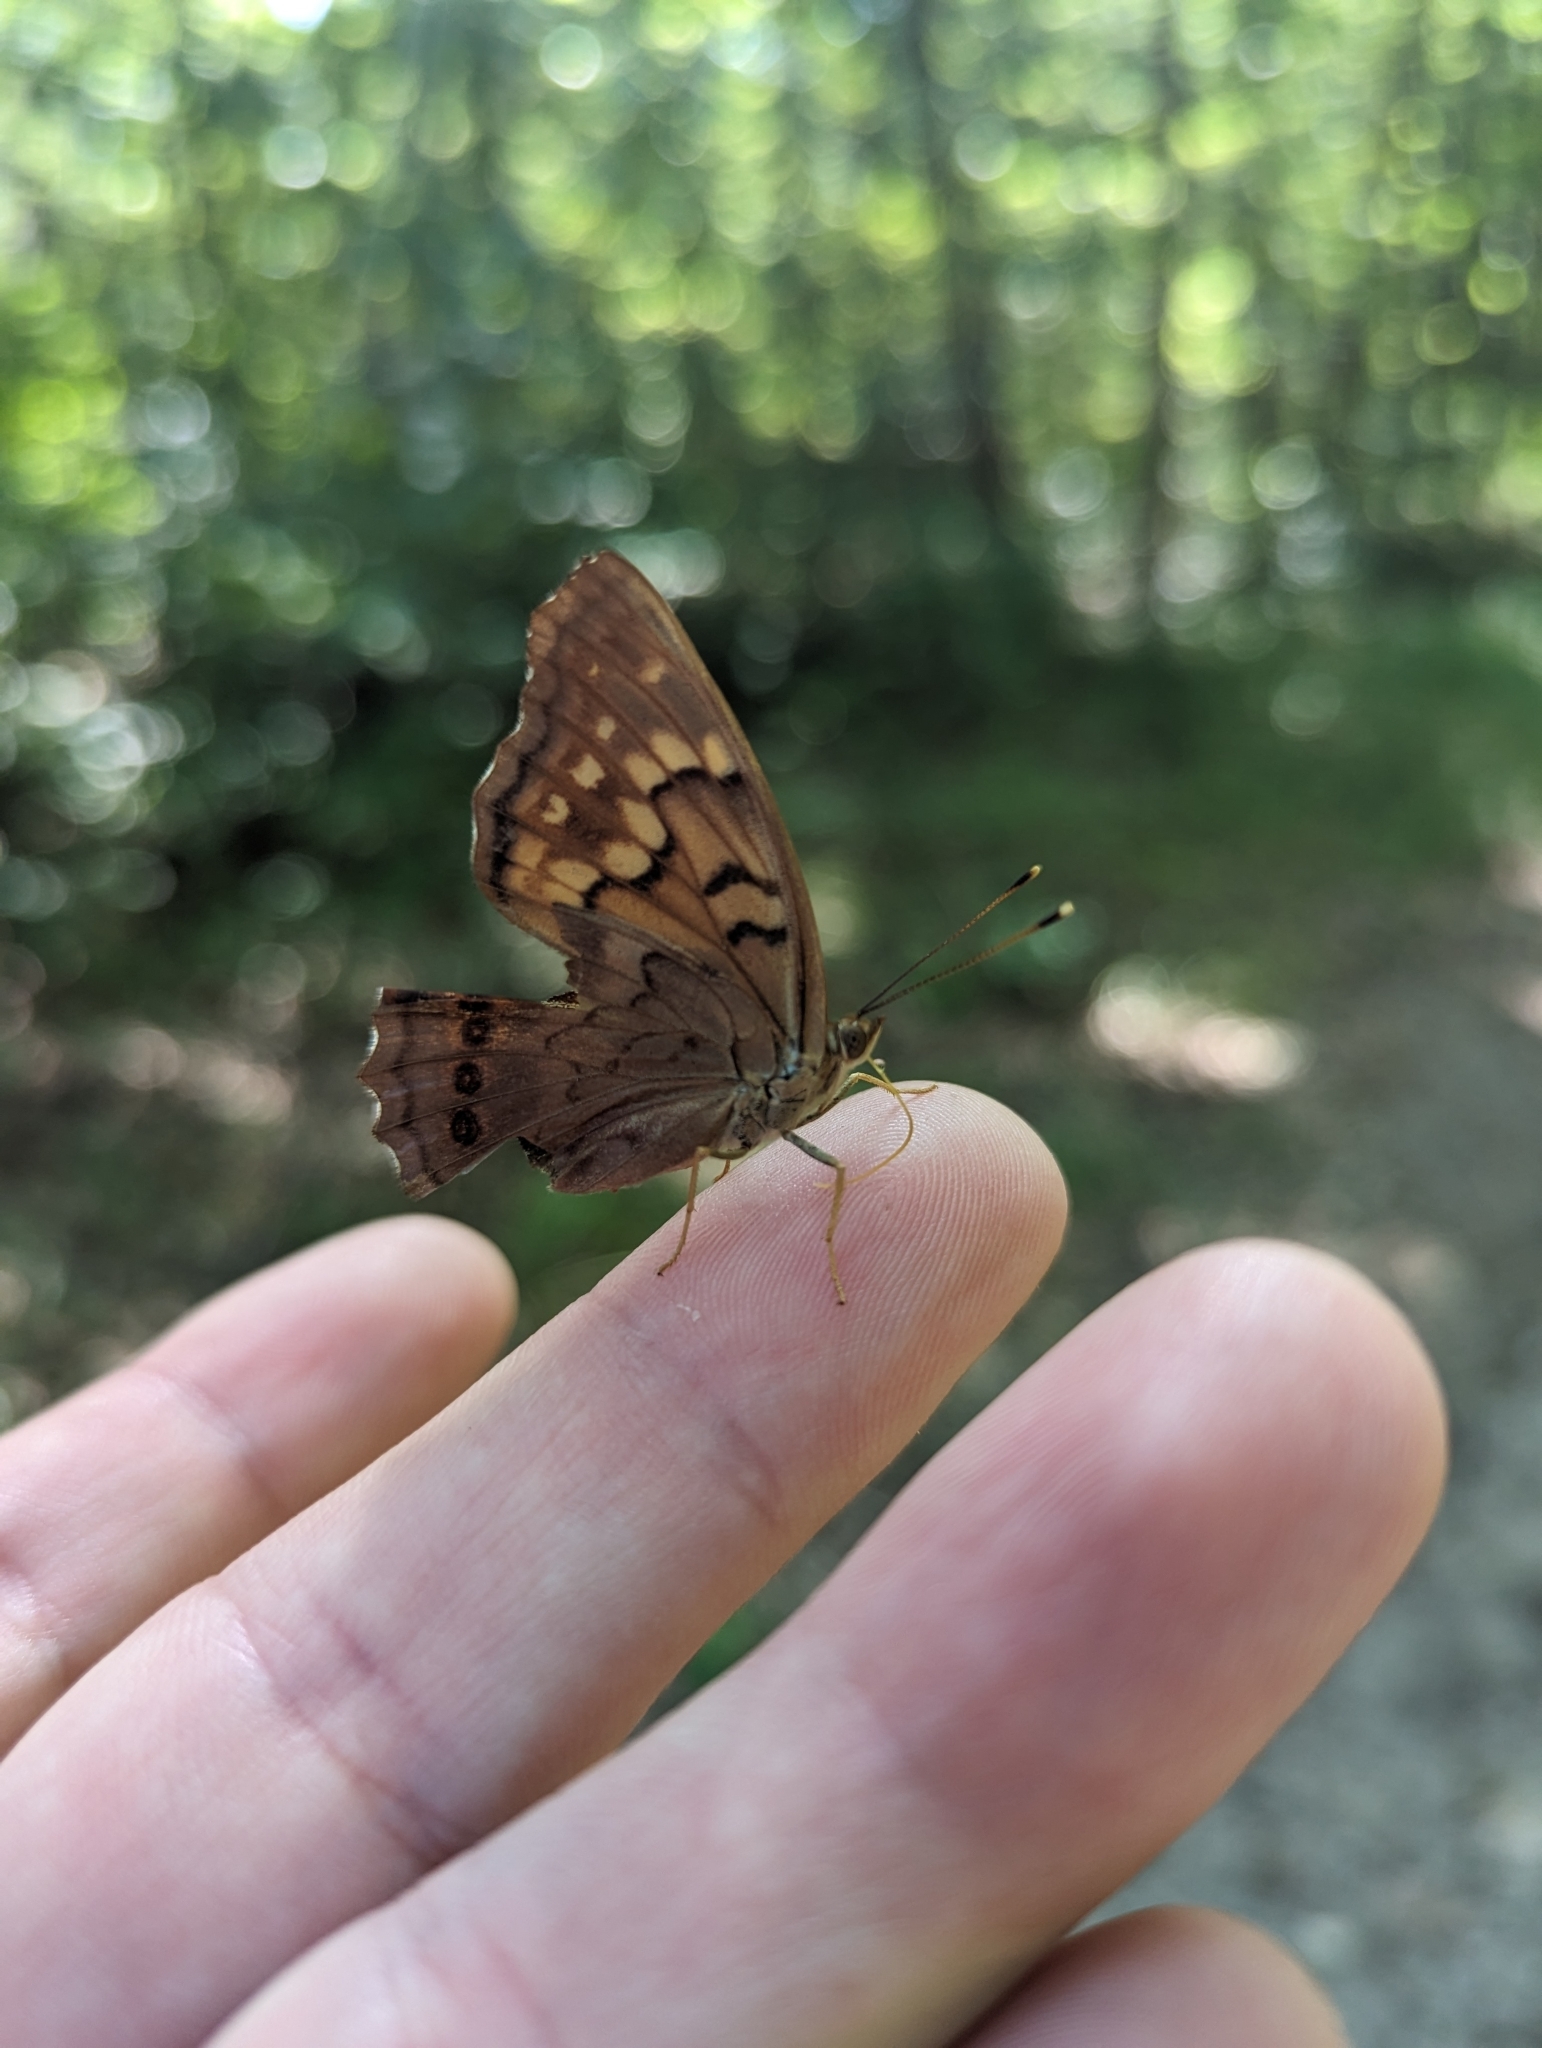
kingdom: Animalia
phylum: Arthropoda
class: Insecta
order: Lepidoptera
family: Nymphalidae
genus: Asterocampa
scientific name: Asterocampa clyton
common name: Tawny emperor
